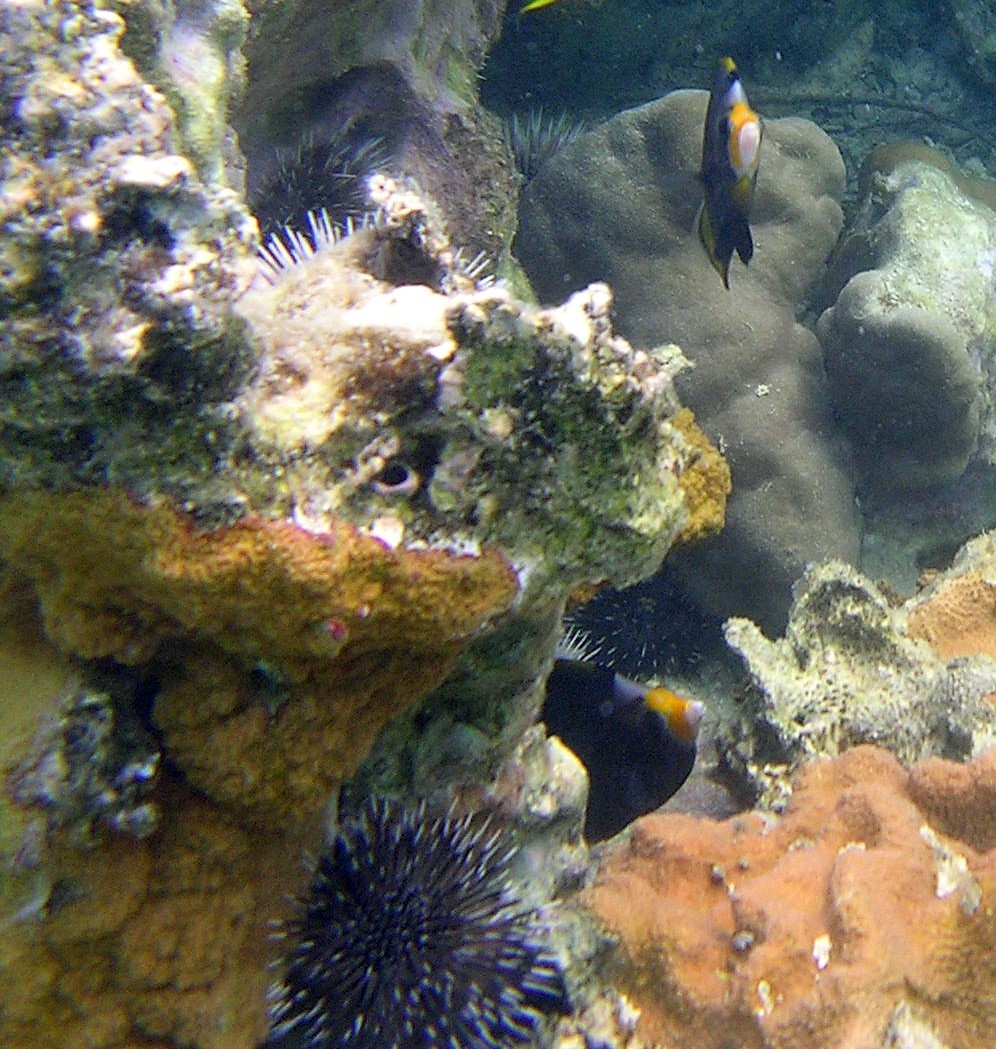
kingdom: Animalia
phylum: Chordata
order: Perciformes
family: Chaetodontidae
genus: Chaetodon
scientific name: Chaetodon flavirostris
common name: Black butterflyfish
